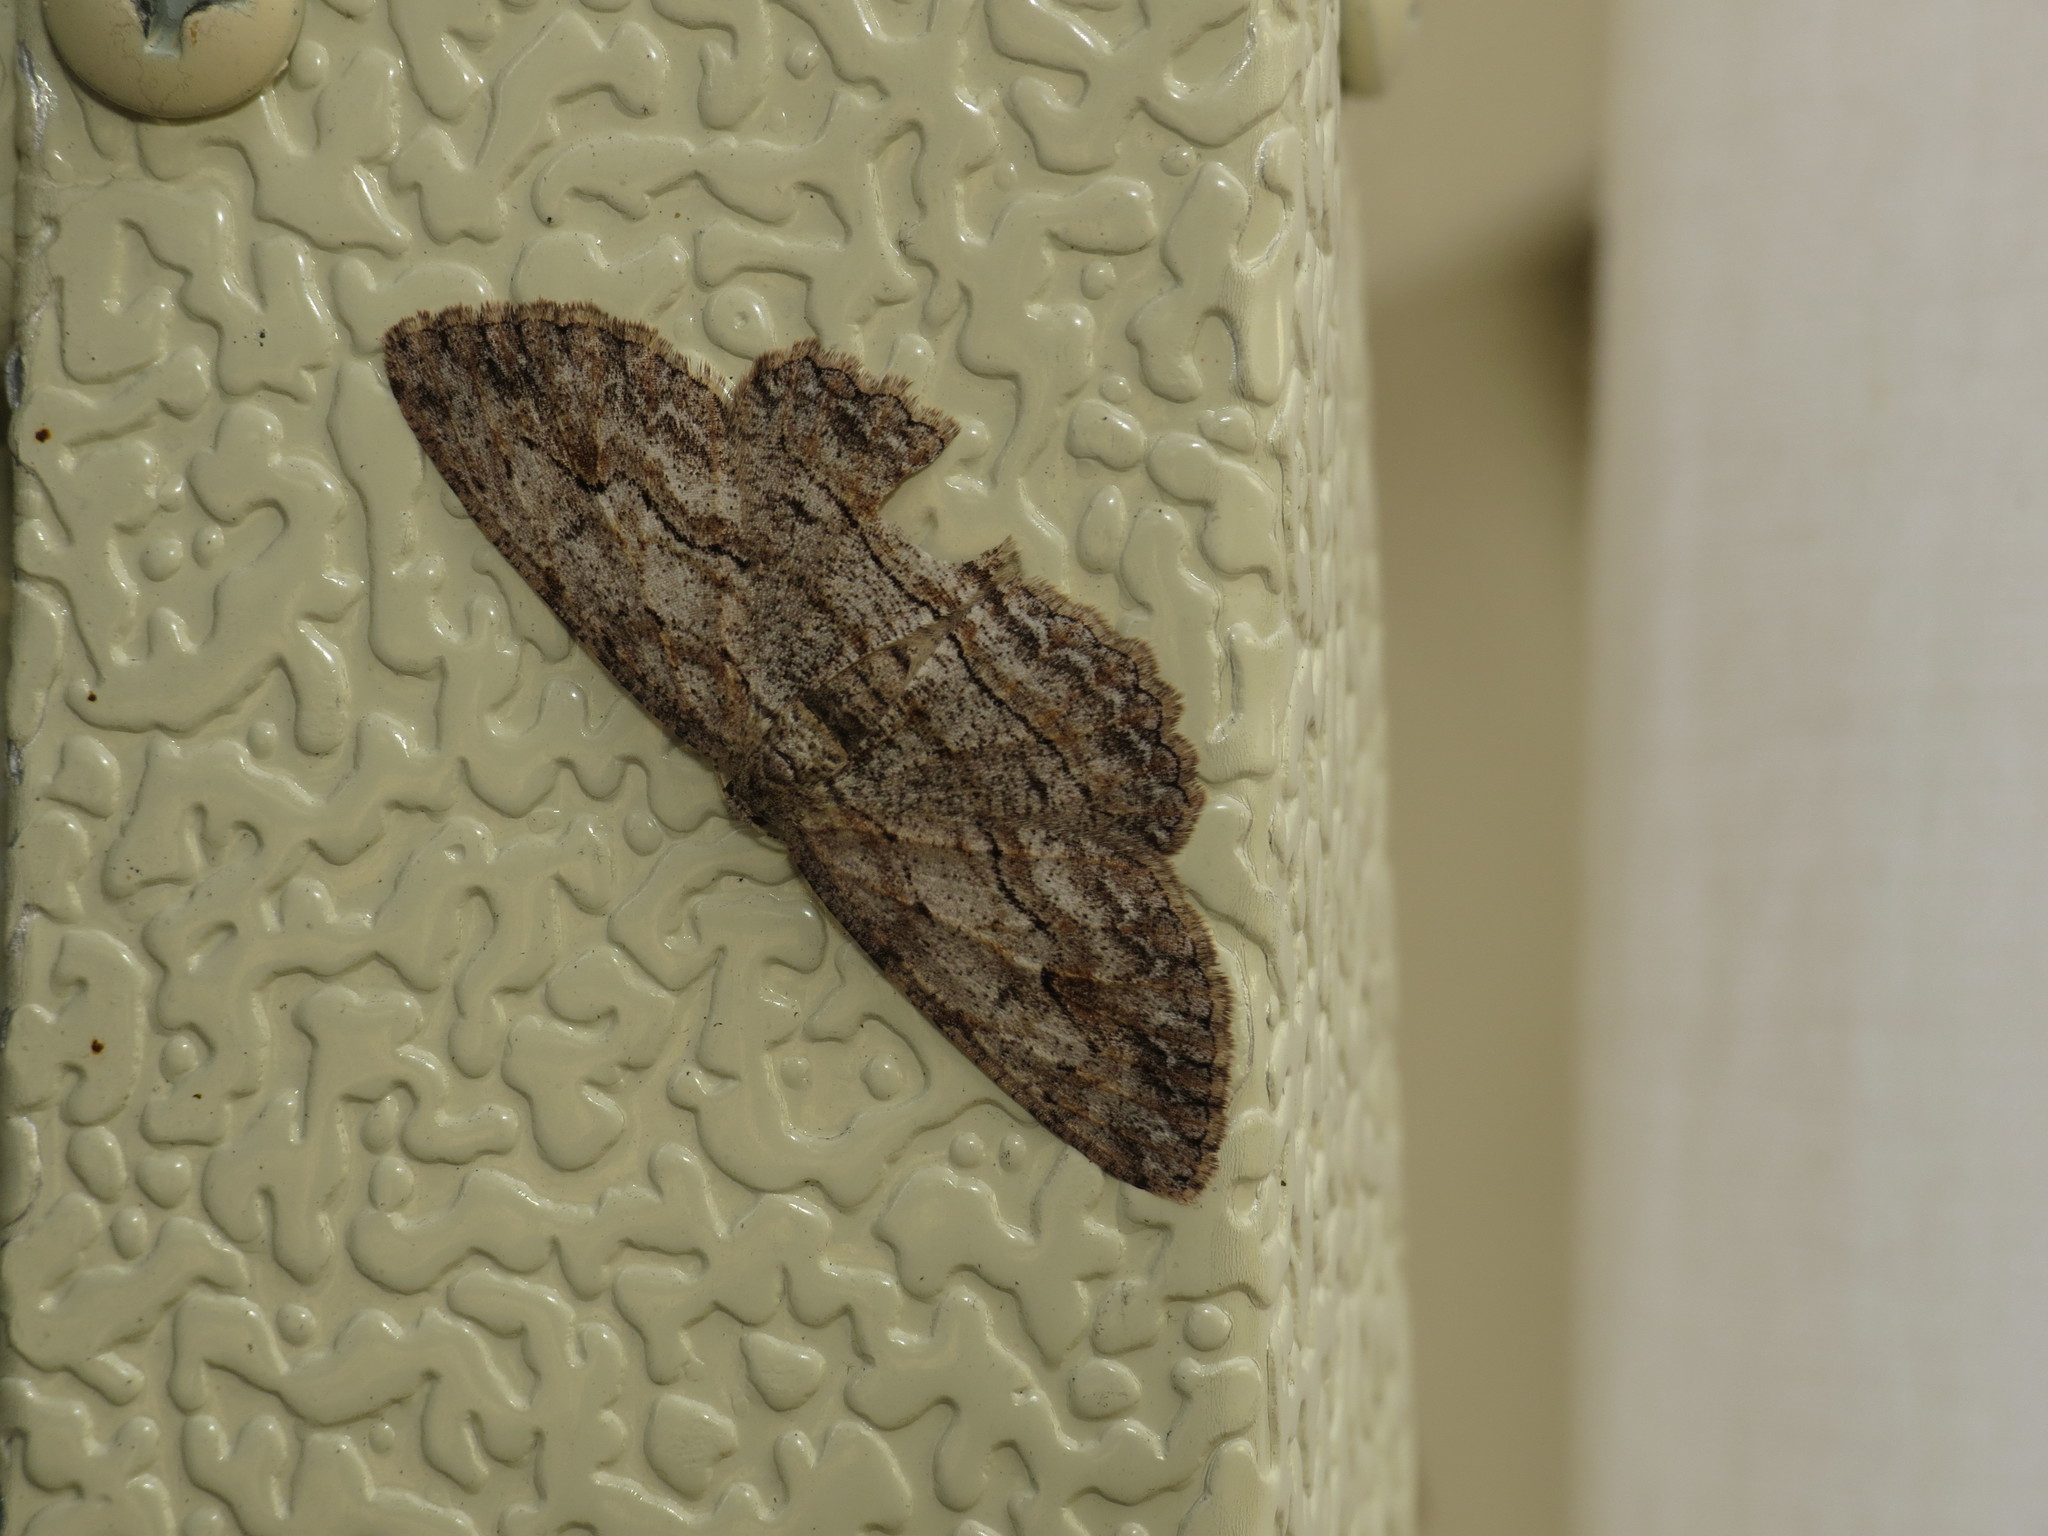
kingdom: Animalia
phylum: Arthropoda
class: Insecta
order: Lepidoptera
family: Geometridae
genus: Ectropis
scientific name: Ectropis bispinaria
